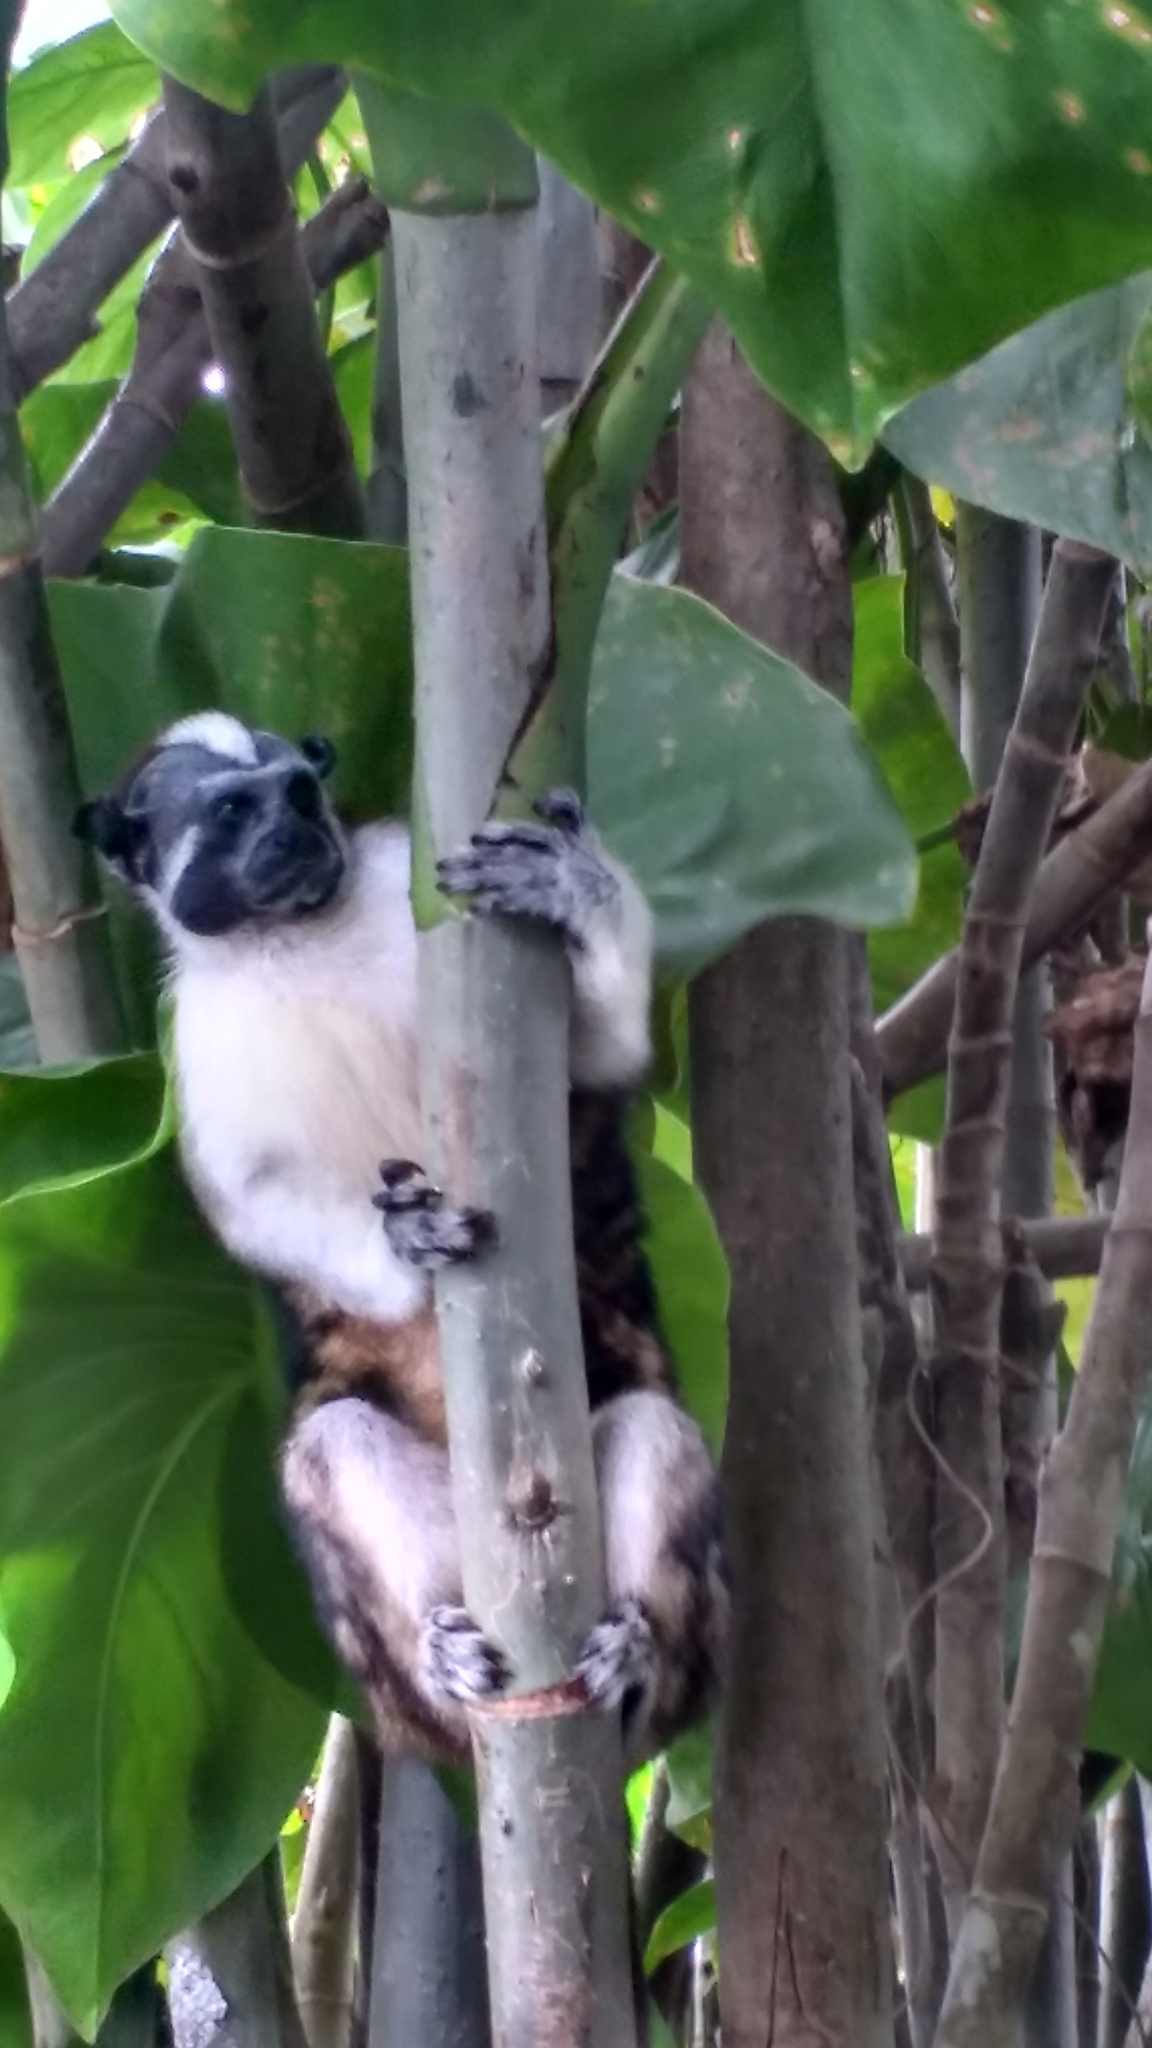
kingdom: Animalia
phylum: Chordata
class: Mammalia
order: Primates
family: Callitrichidae
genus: Saguinus
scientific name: Saguinus geoffroyi
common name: Geoffroy s tamarin
